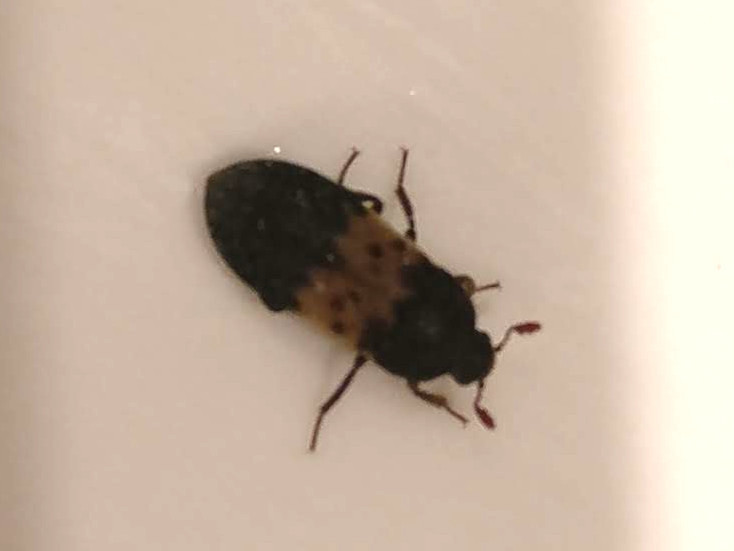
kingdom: Animalia
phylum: Arthropoda
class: Insecta
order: Coleoptera
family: Dermestidae
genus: Dermestes
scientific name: Dermestes lardarius
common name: Larder beetle
